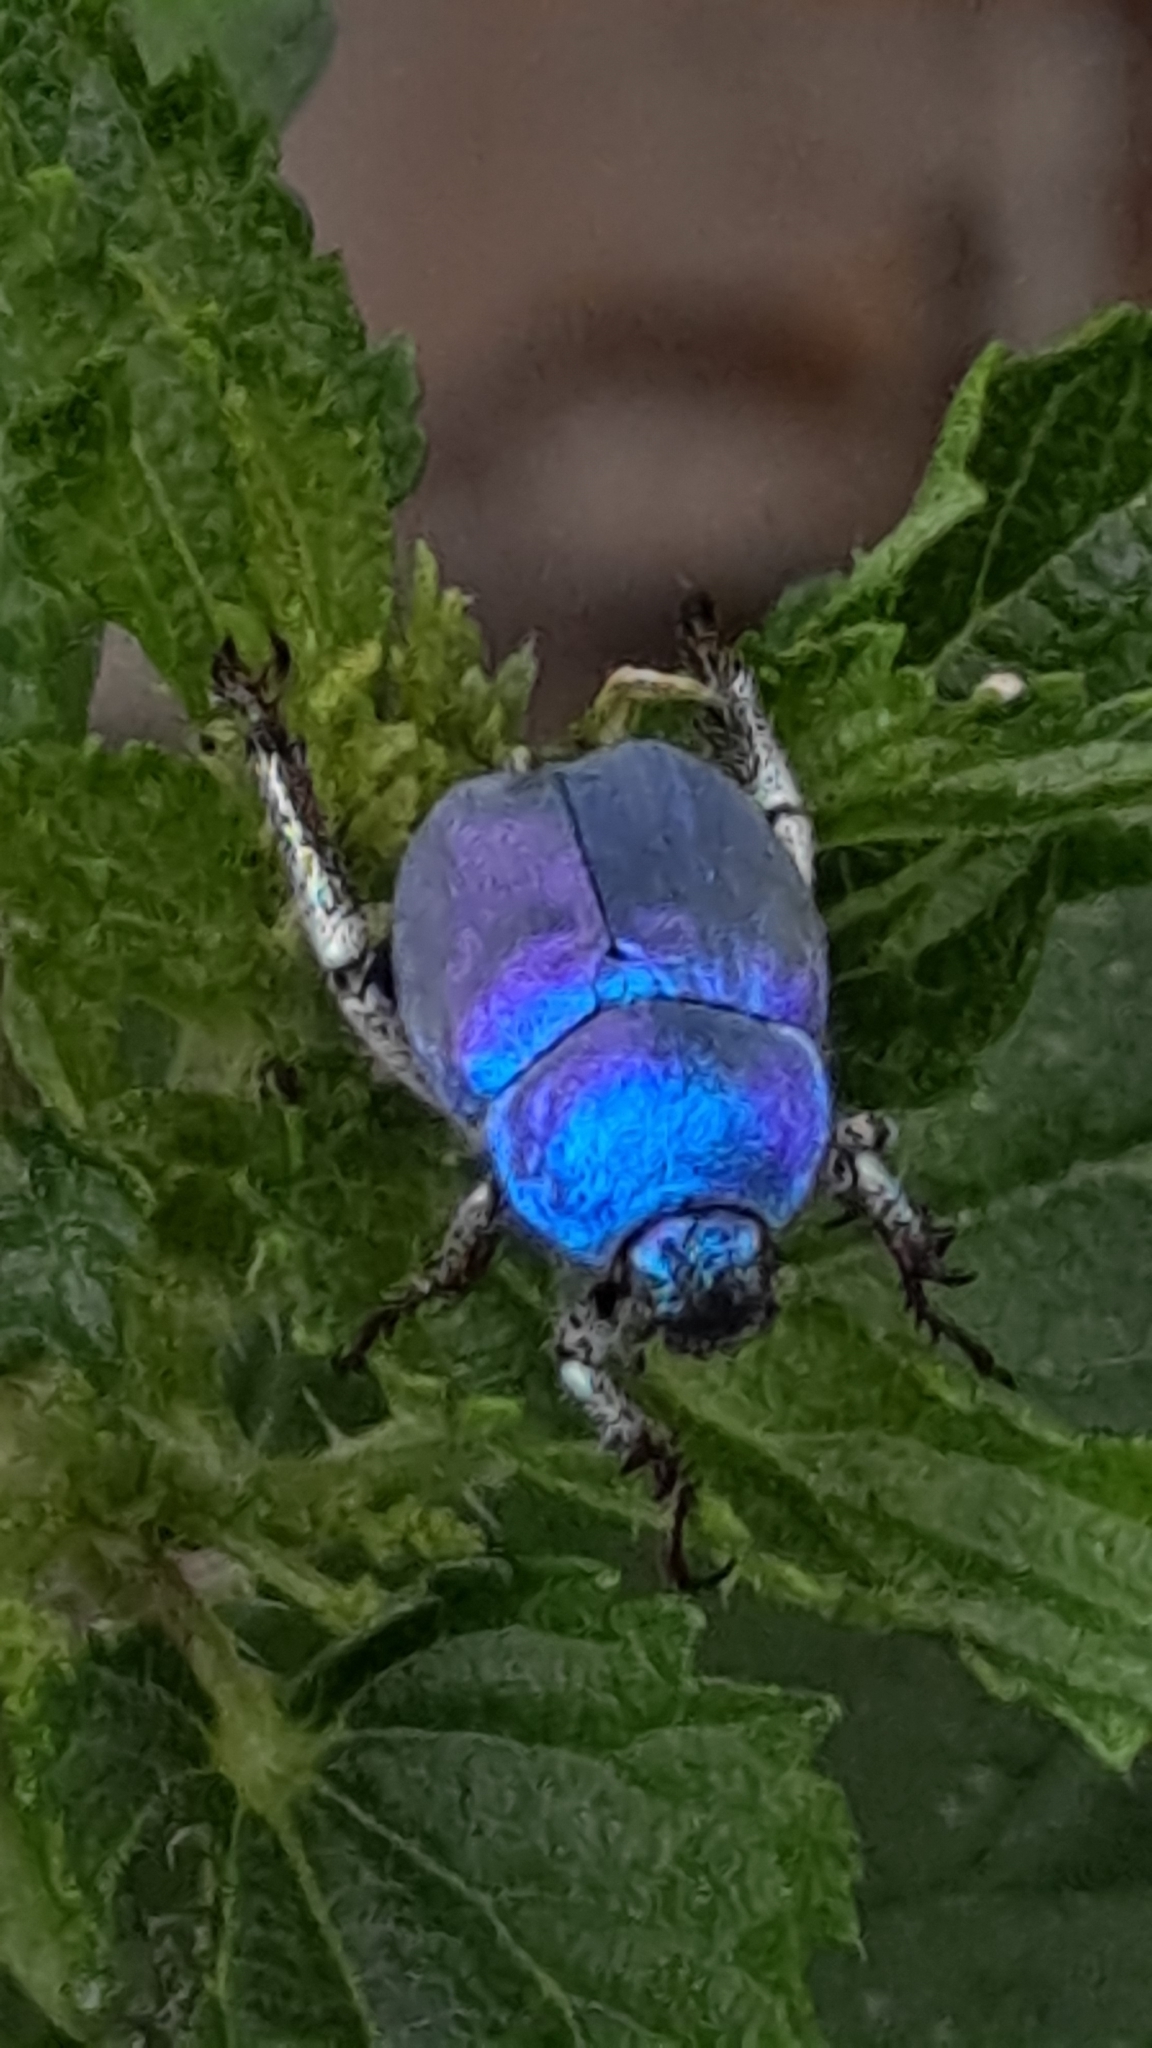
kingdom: Animalia
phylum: Arthropoda
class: Insecta
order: Coleoptera
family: Scarabaeidae
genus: Hoplia
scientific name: Hoplia coerulea
